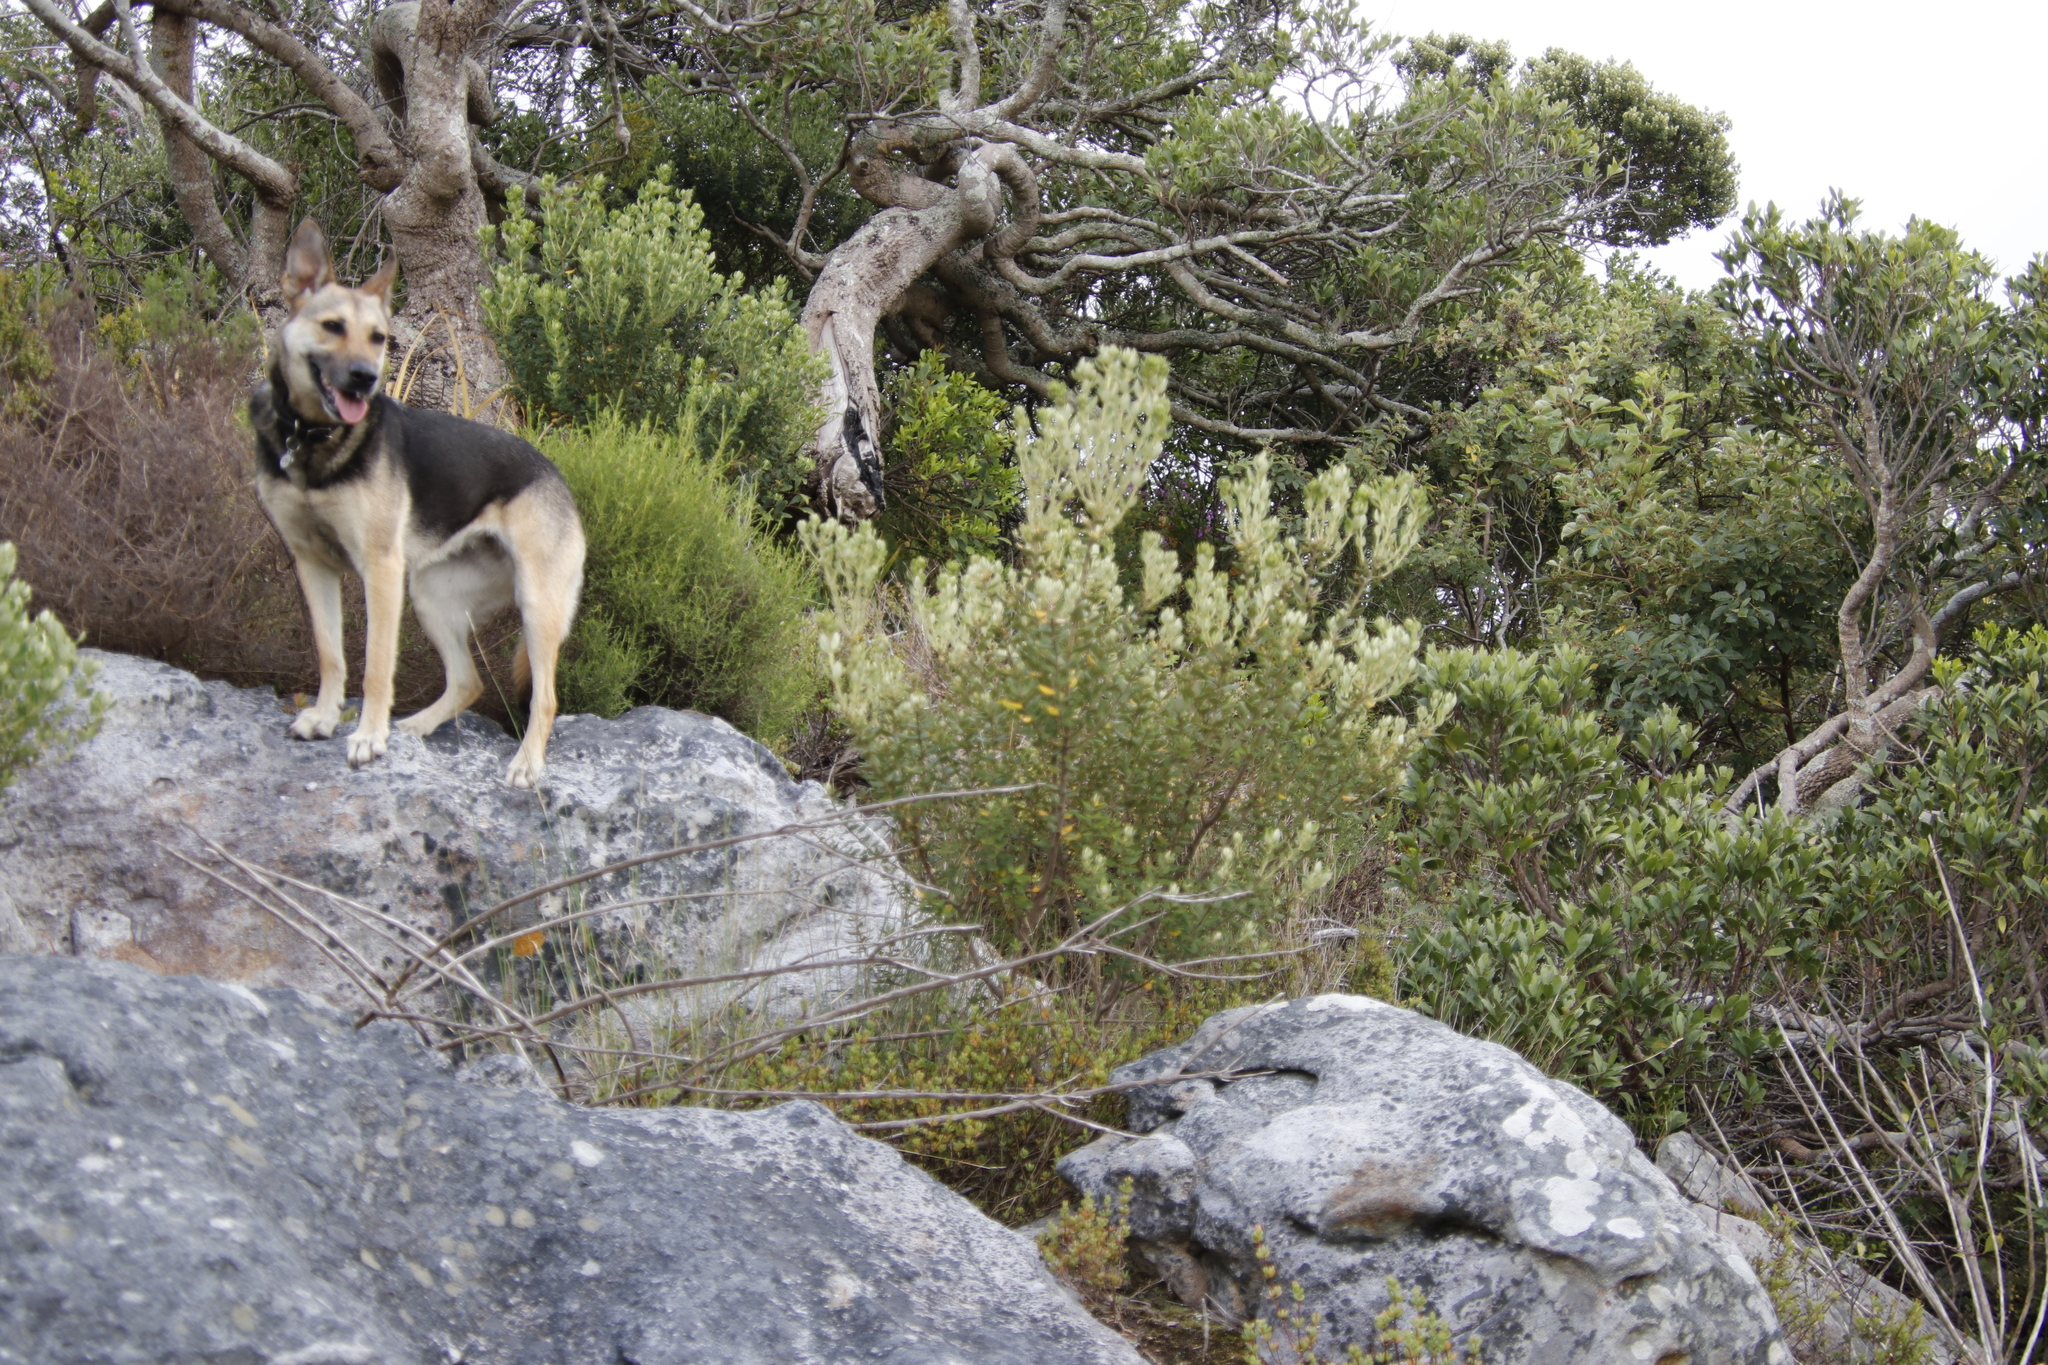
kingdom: Plantae
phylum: Tracheophyta
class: Magnoliopsida
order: Rosales
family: Rhamnaceae
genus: Phylica
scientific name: Phylica buxifolia
